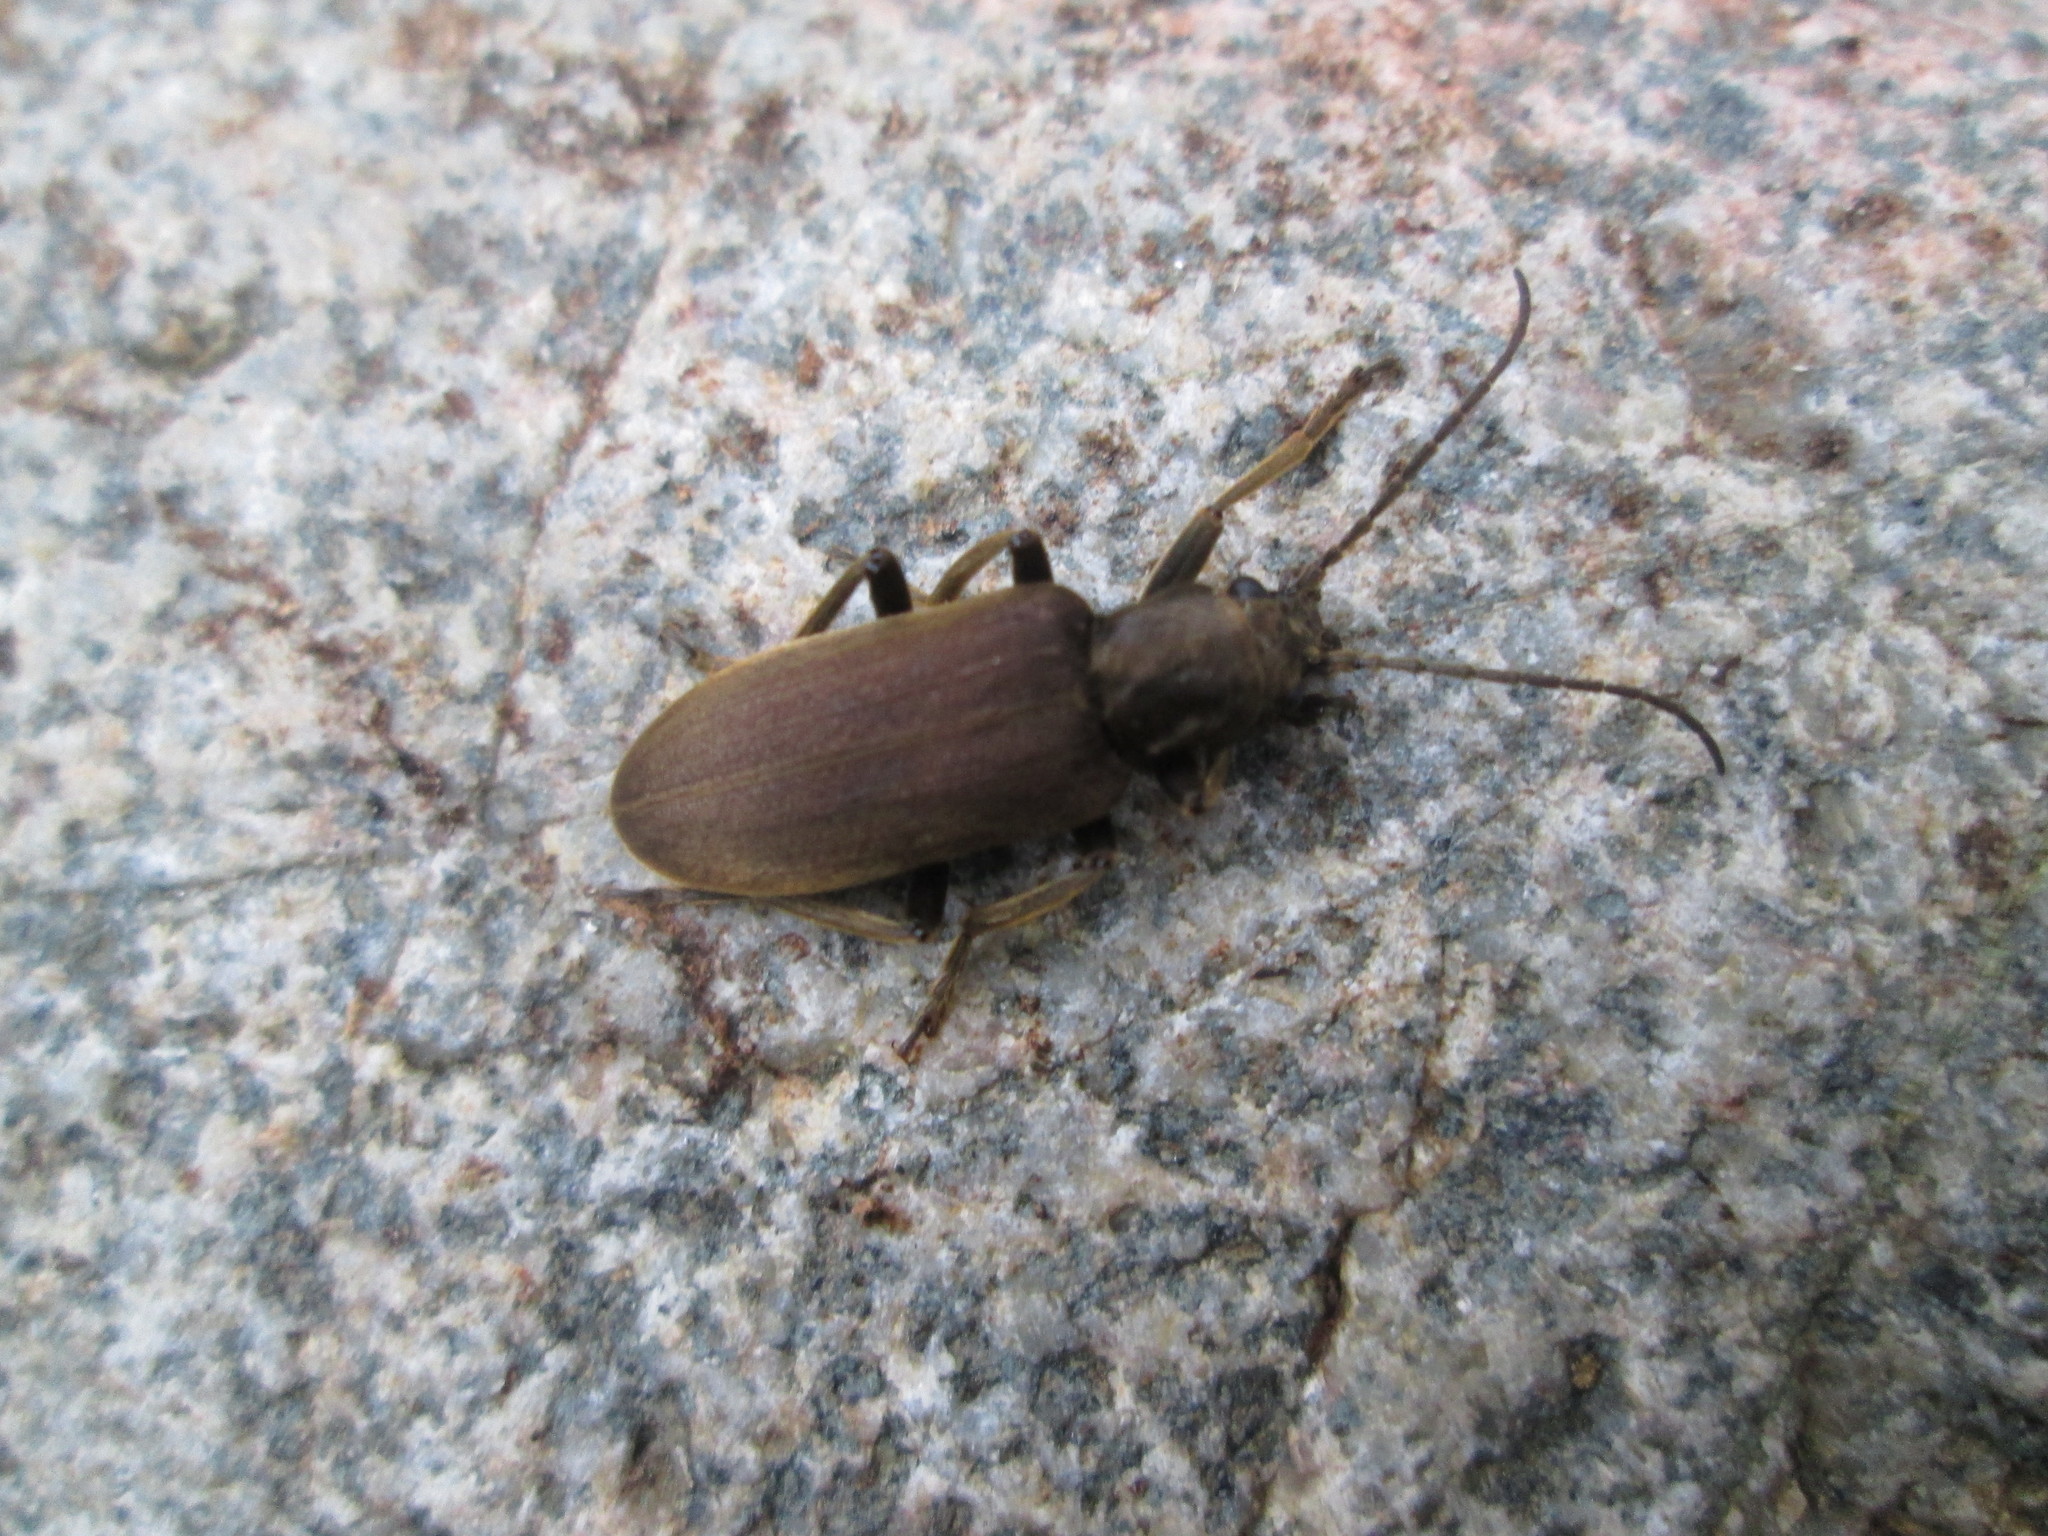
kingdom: Animalia
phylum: Arthropoda
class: Insecta
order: Coleoptera
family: Oedemeridae
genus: Ditylus
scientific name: Ditylus quadricollis
